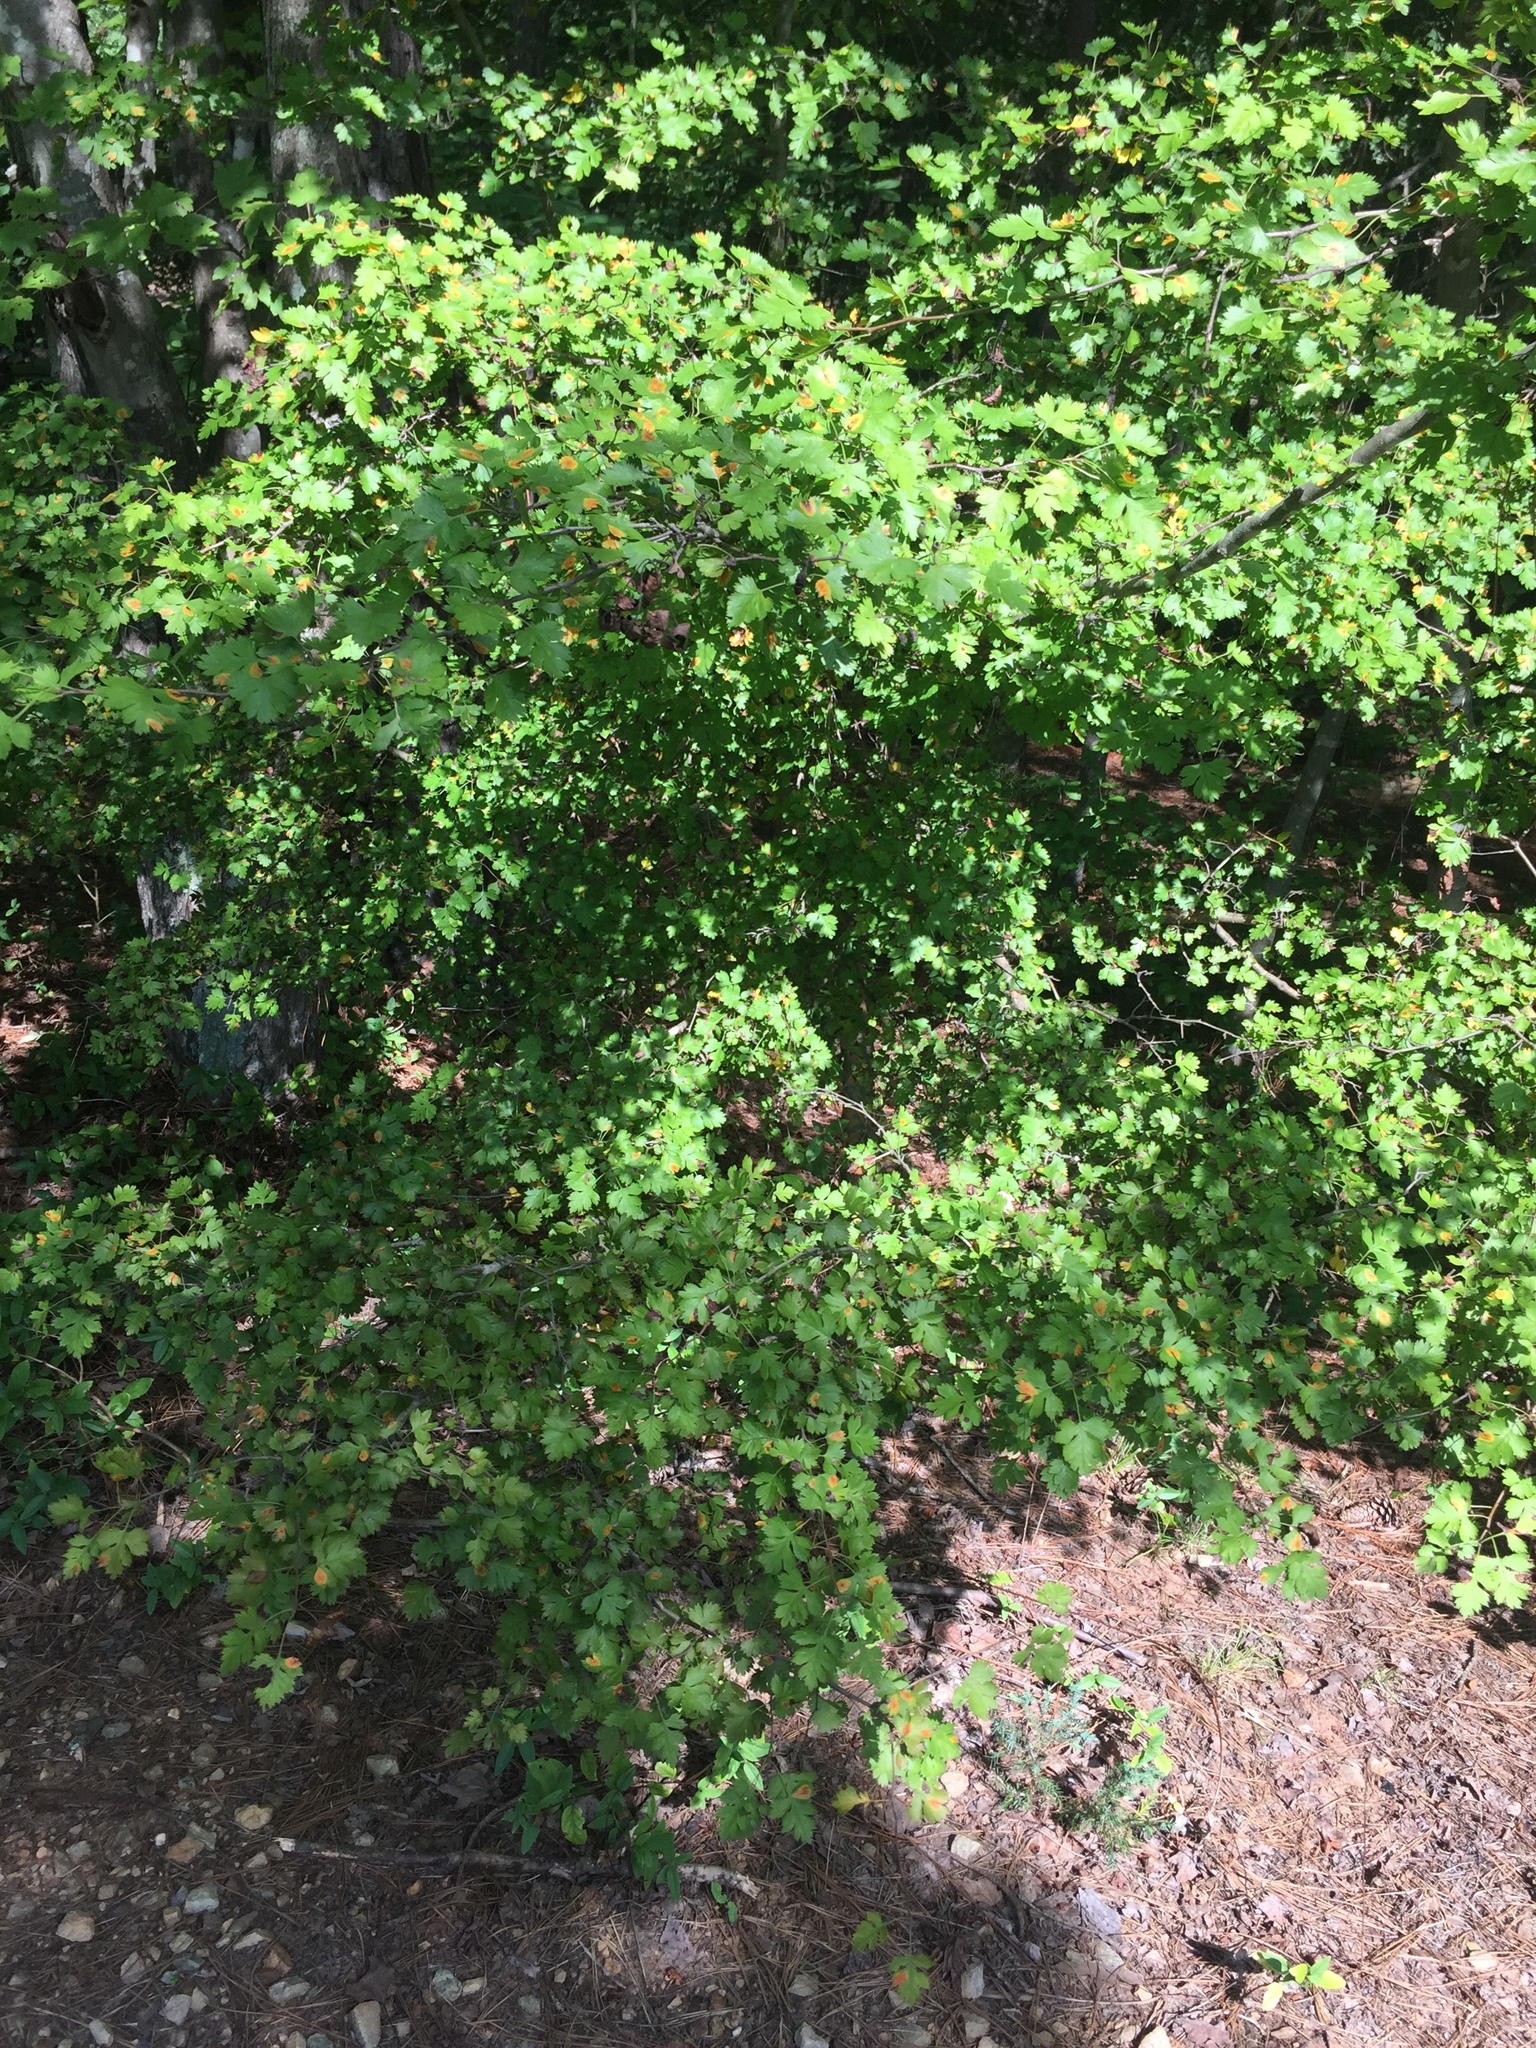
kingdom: Plantae
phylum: Tracheophyta
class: Magnoliopsida
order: Rosales
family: Rosaceae
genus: Crataegus
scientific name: Crataegus marshallii
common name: Parsley-hawthorn
